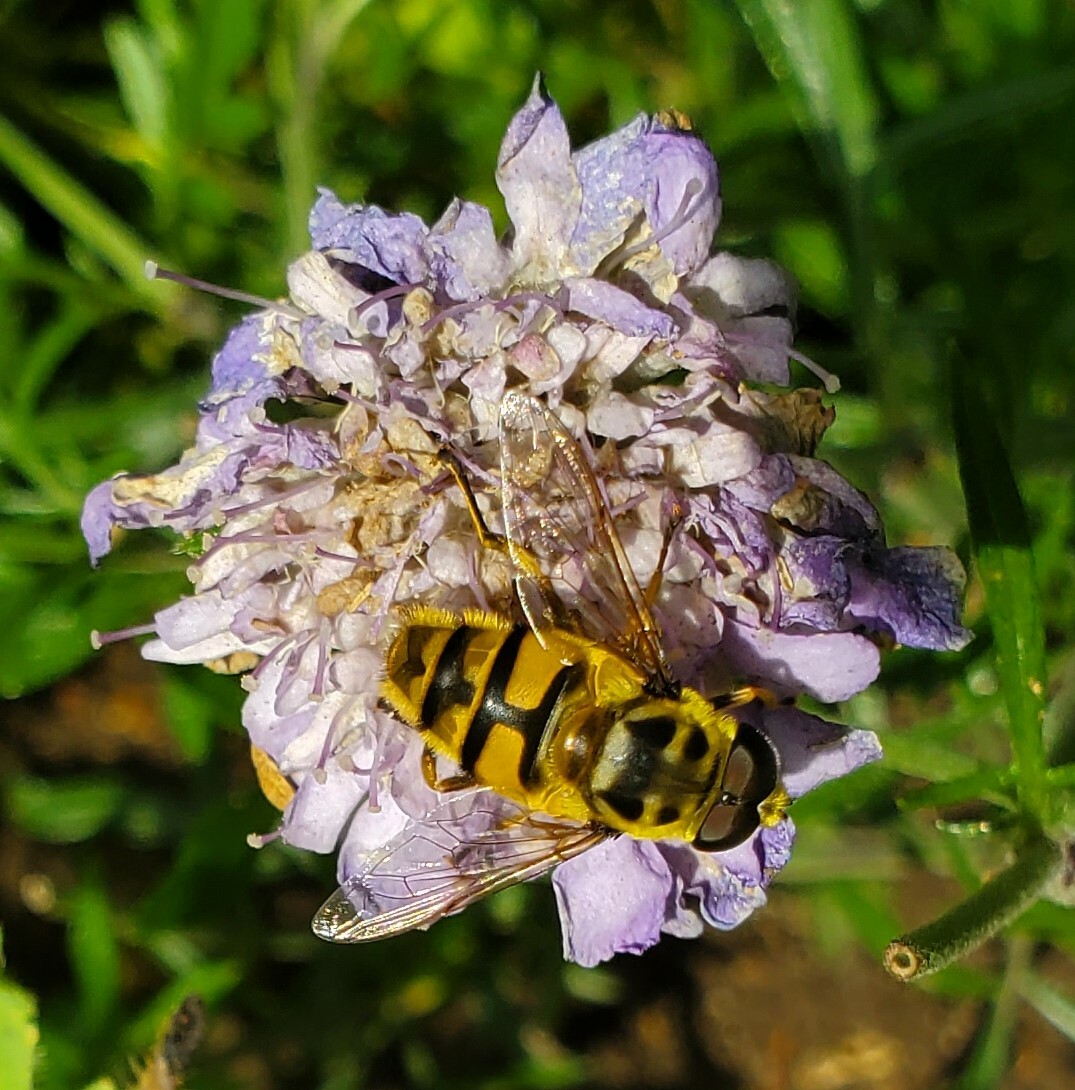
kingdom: Animalia
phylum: Arthropoda
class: Insecta
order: Diptera
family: Syrphidae
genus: Myathropa
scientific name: Myathropa florea
